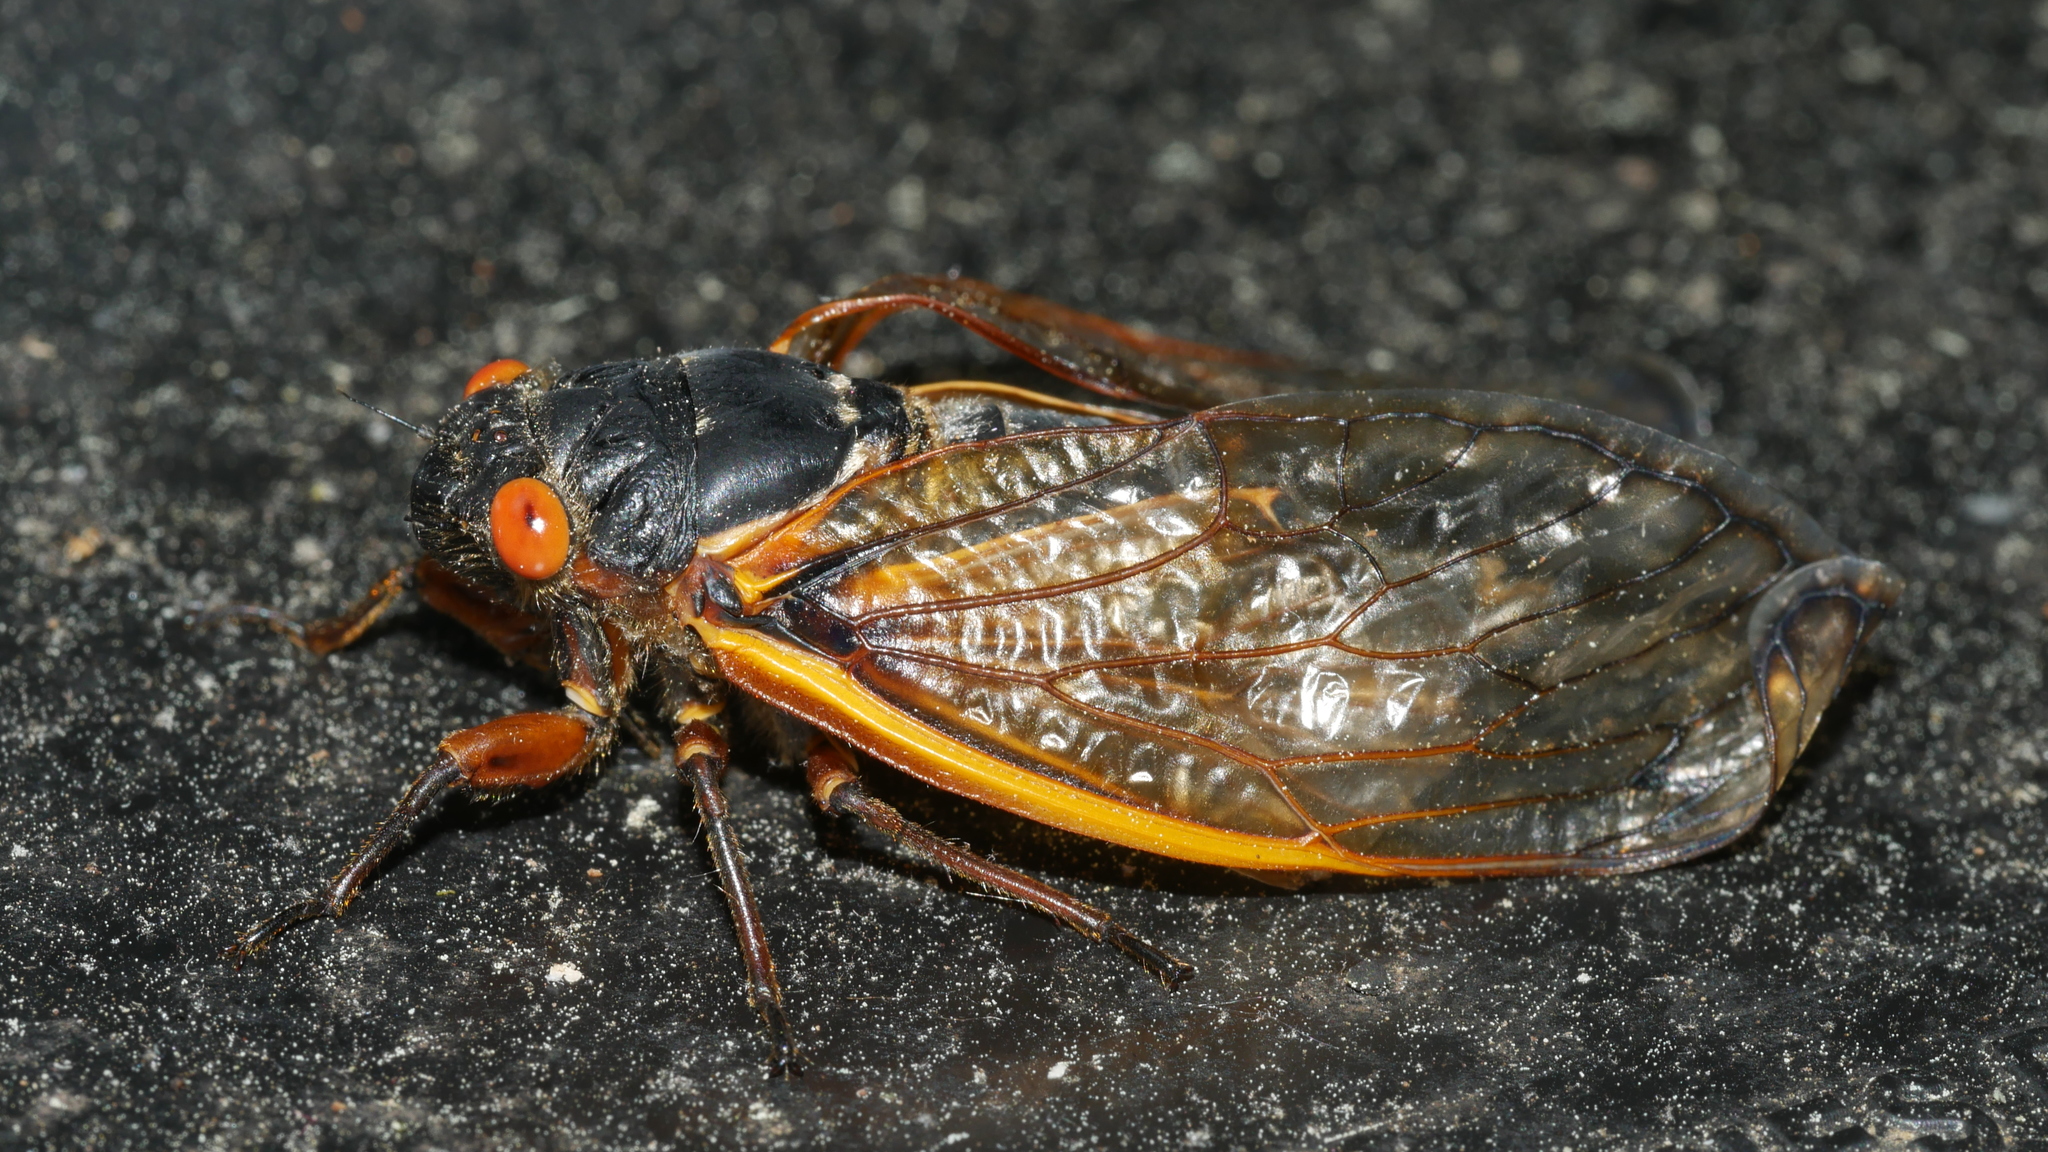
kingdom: Animalia
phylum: Arthropoda
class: Insecta
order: Hemiptera
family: Cicadidae
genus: Magicicada
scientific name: Magicicada septendecim
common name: Periodical cicada
